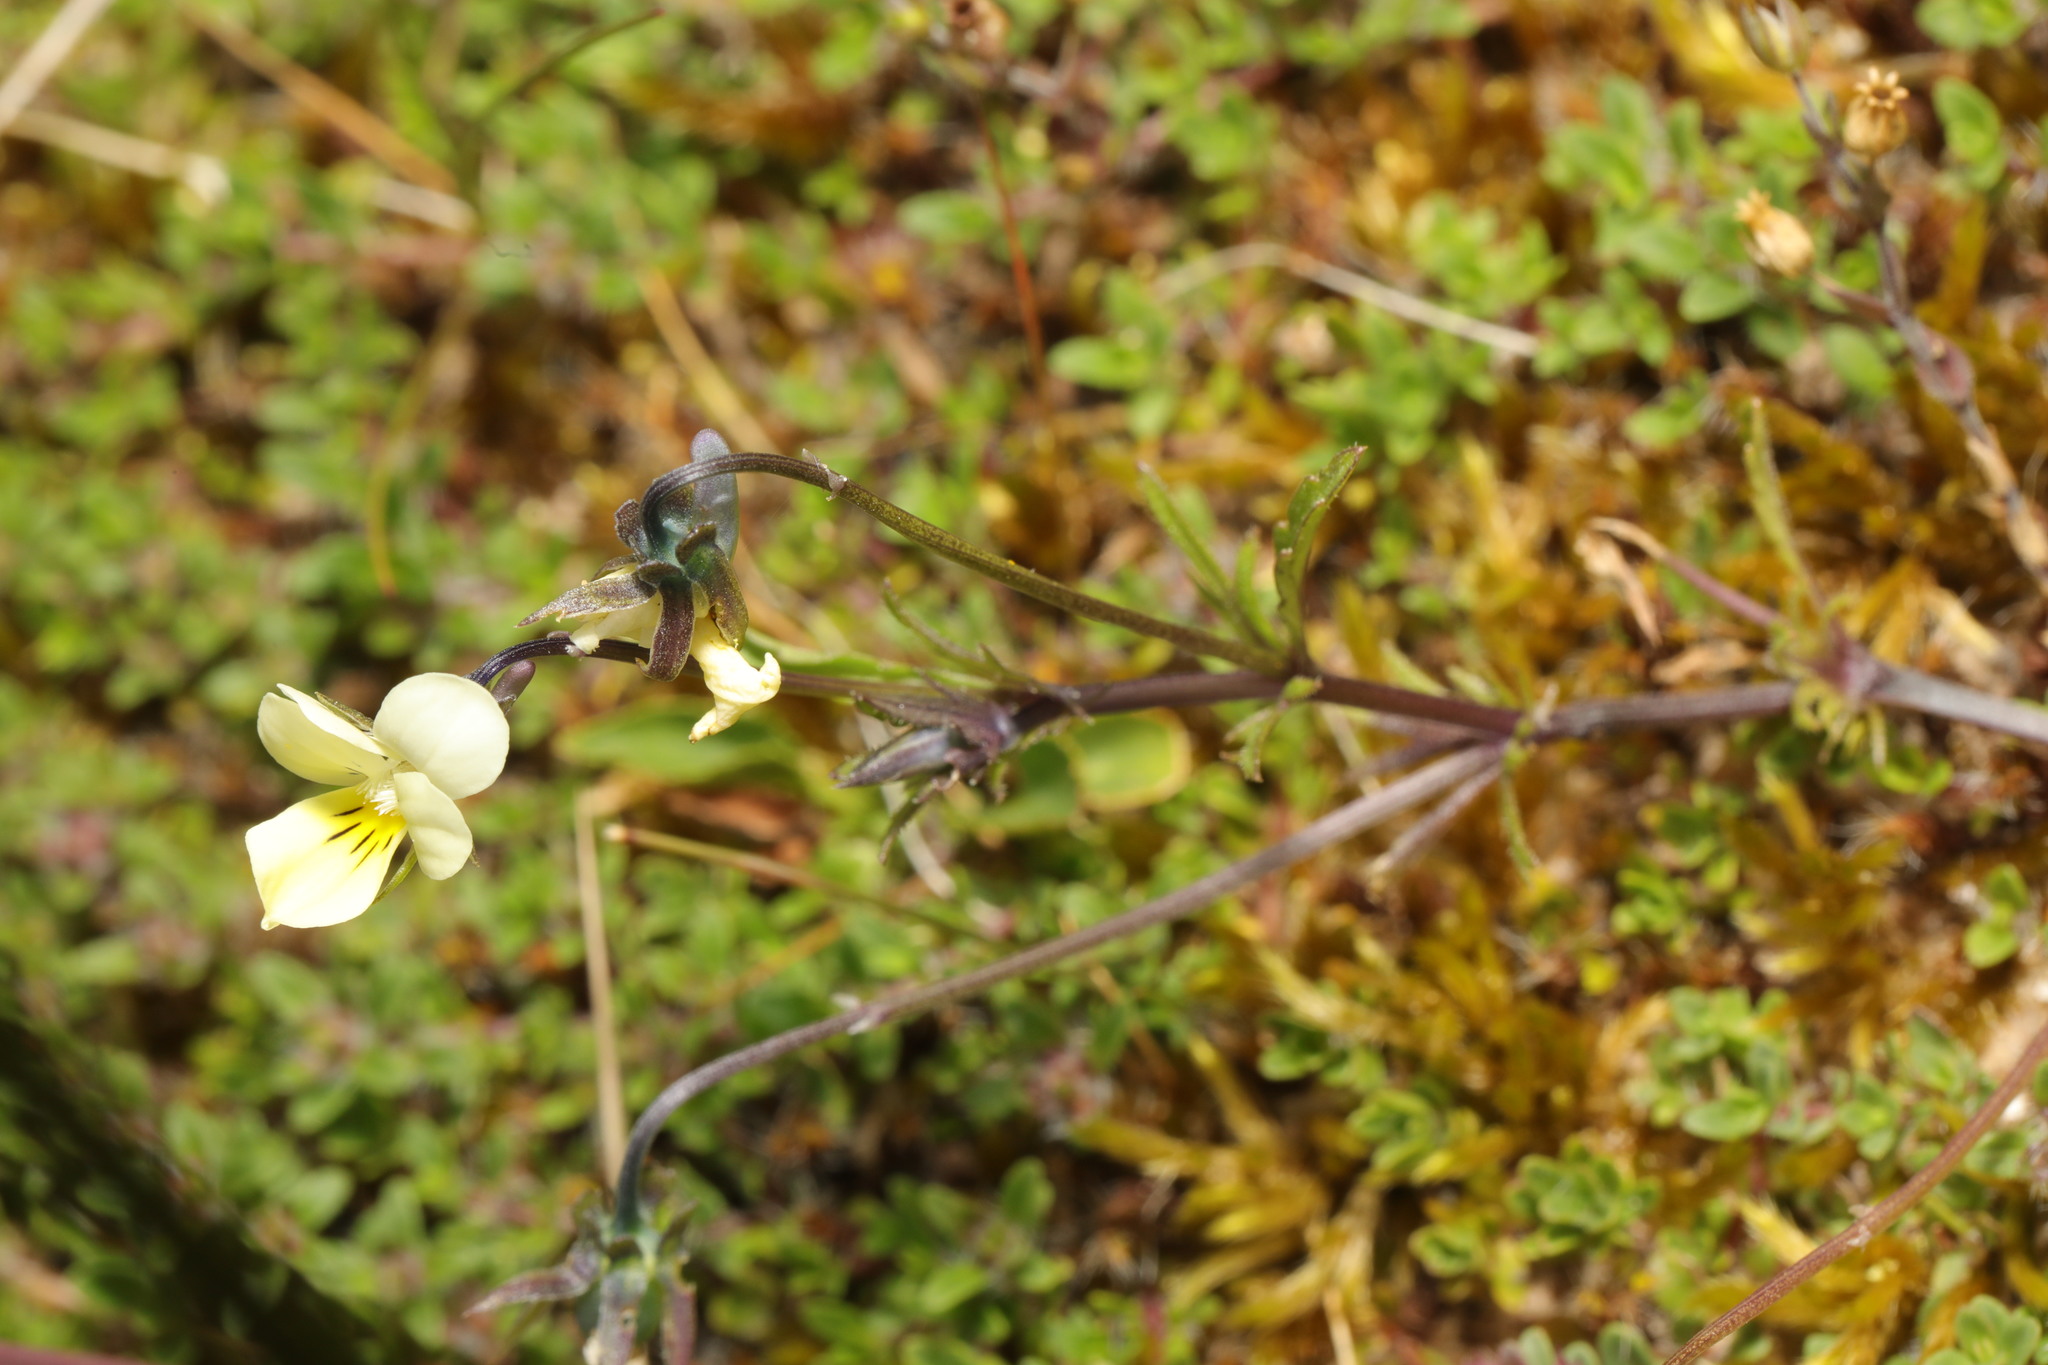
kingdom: Plantae
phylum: Tracheophyta
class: Magnoliopsida
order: Malpighiales
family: Violaceae
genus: Viola
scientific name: Viola tricolor
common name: Pansy
